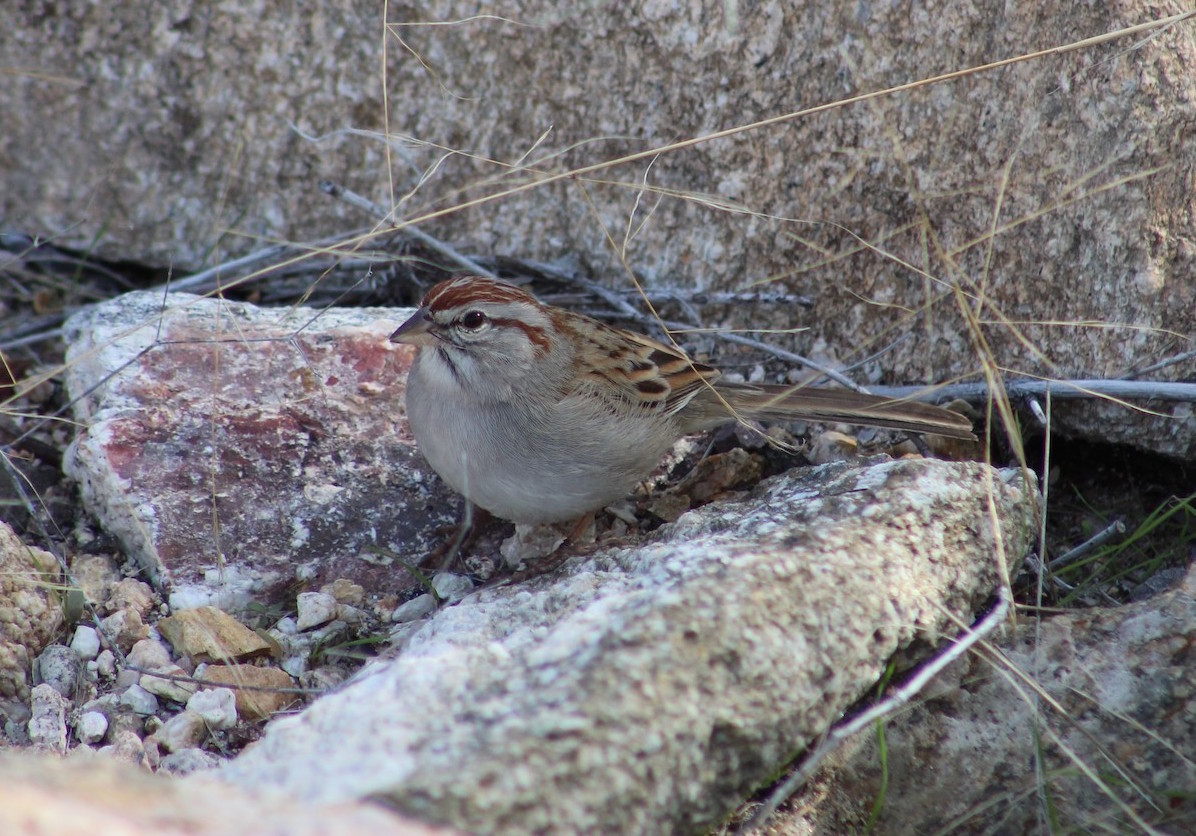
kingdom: Animalia
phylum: Chordata
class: Aves
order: Passeriformes
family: Passerellidae
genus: Peucaea
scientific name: Peucaea carpalis
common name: Rufous-winged sparrow
